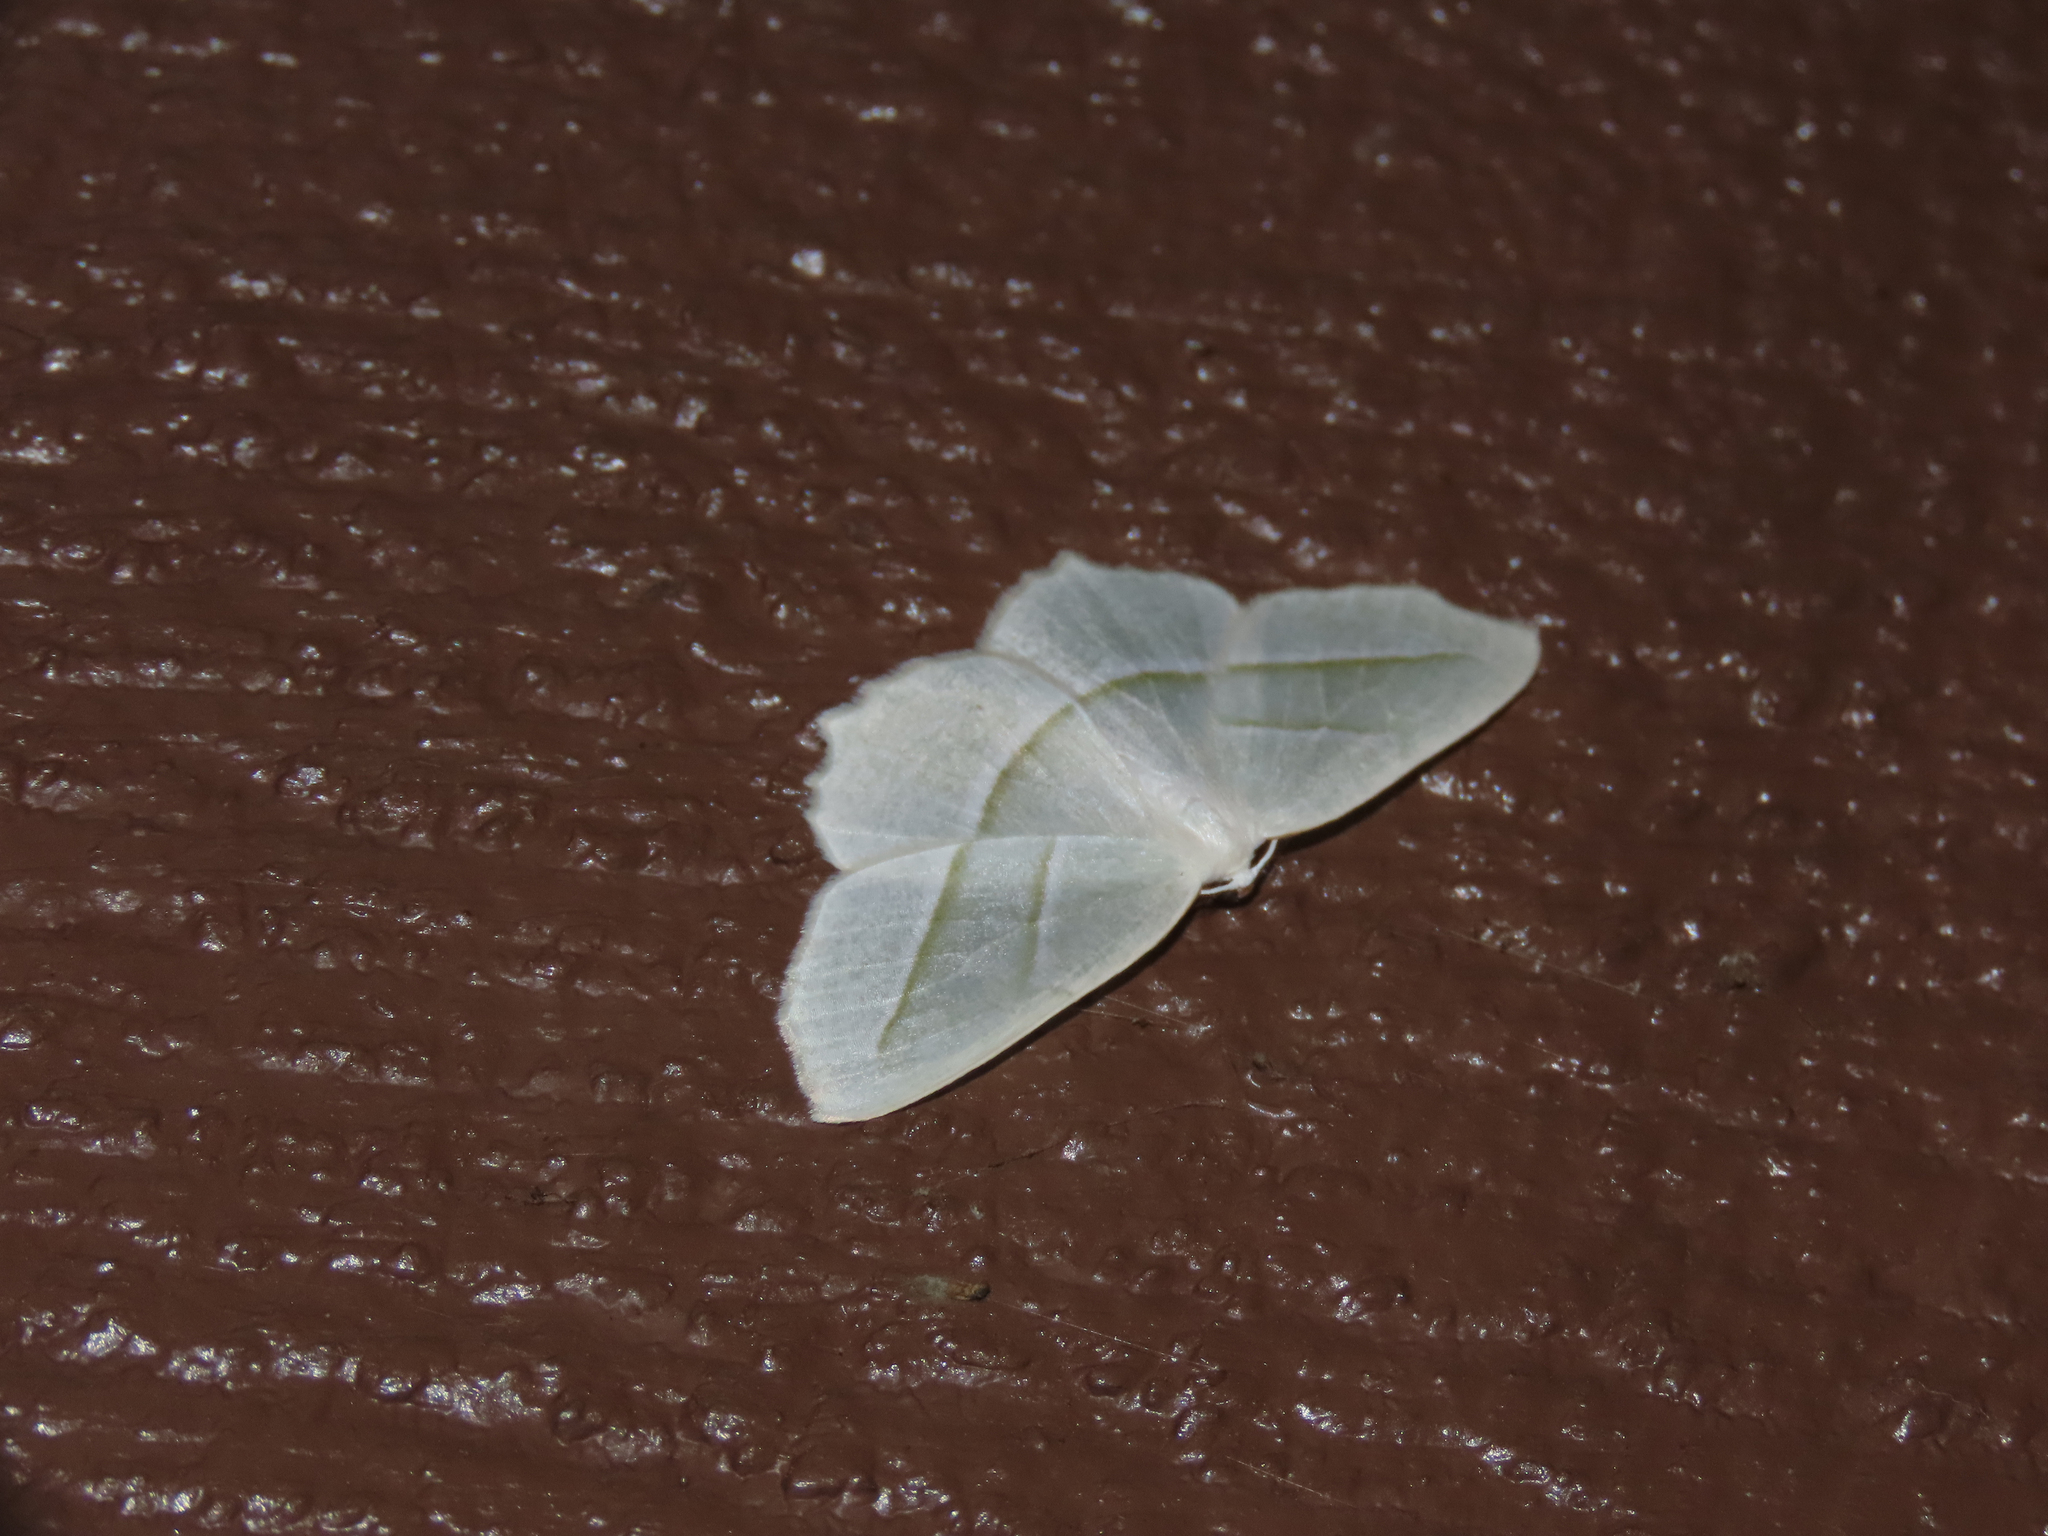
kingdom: Animalia
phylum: Arthropoda
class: Insecta
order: Lepidoptera
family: Geometridae
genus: Campaea
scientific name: Campaea perlata
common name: Fringed looper
